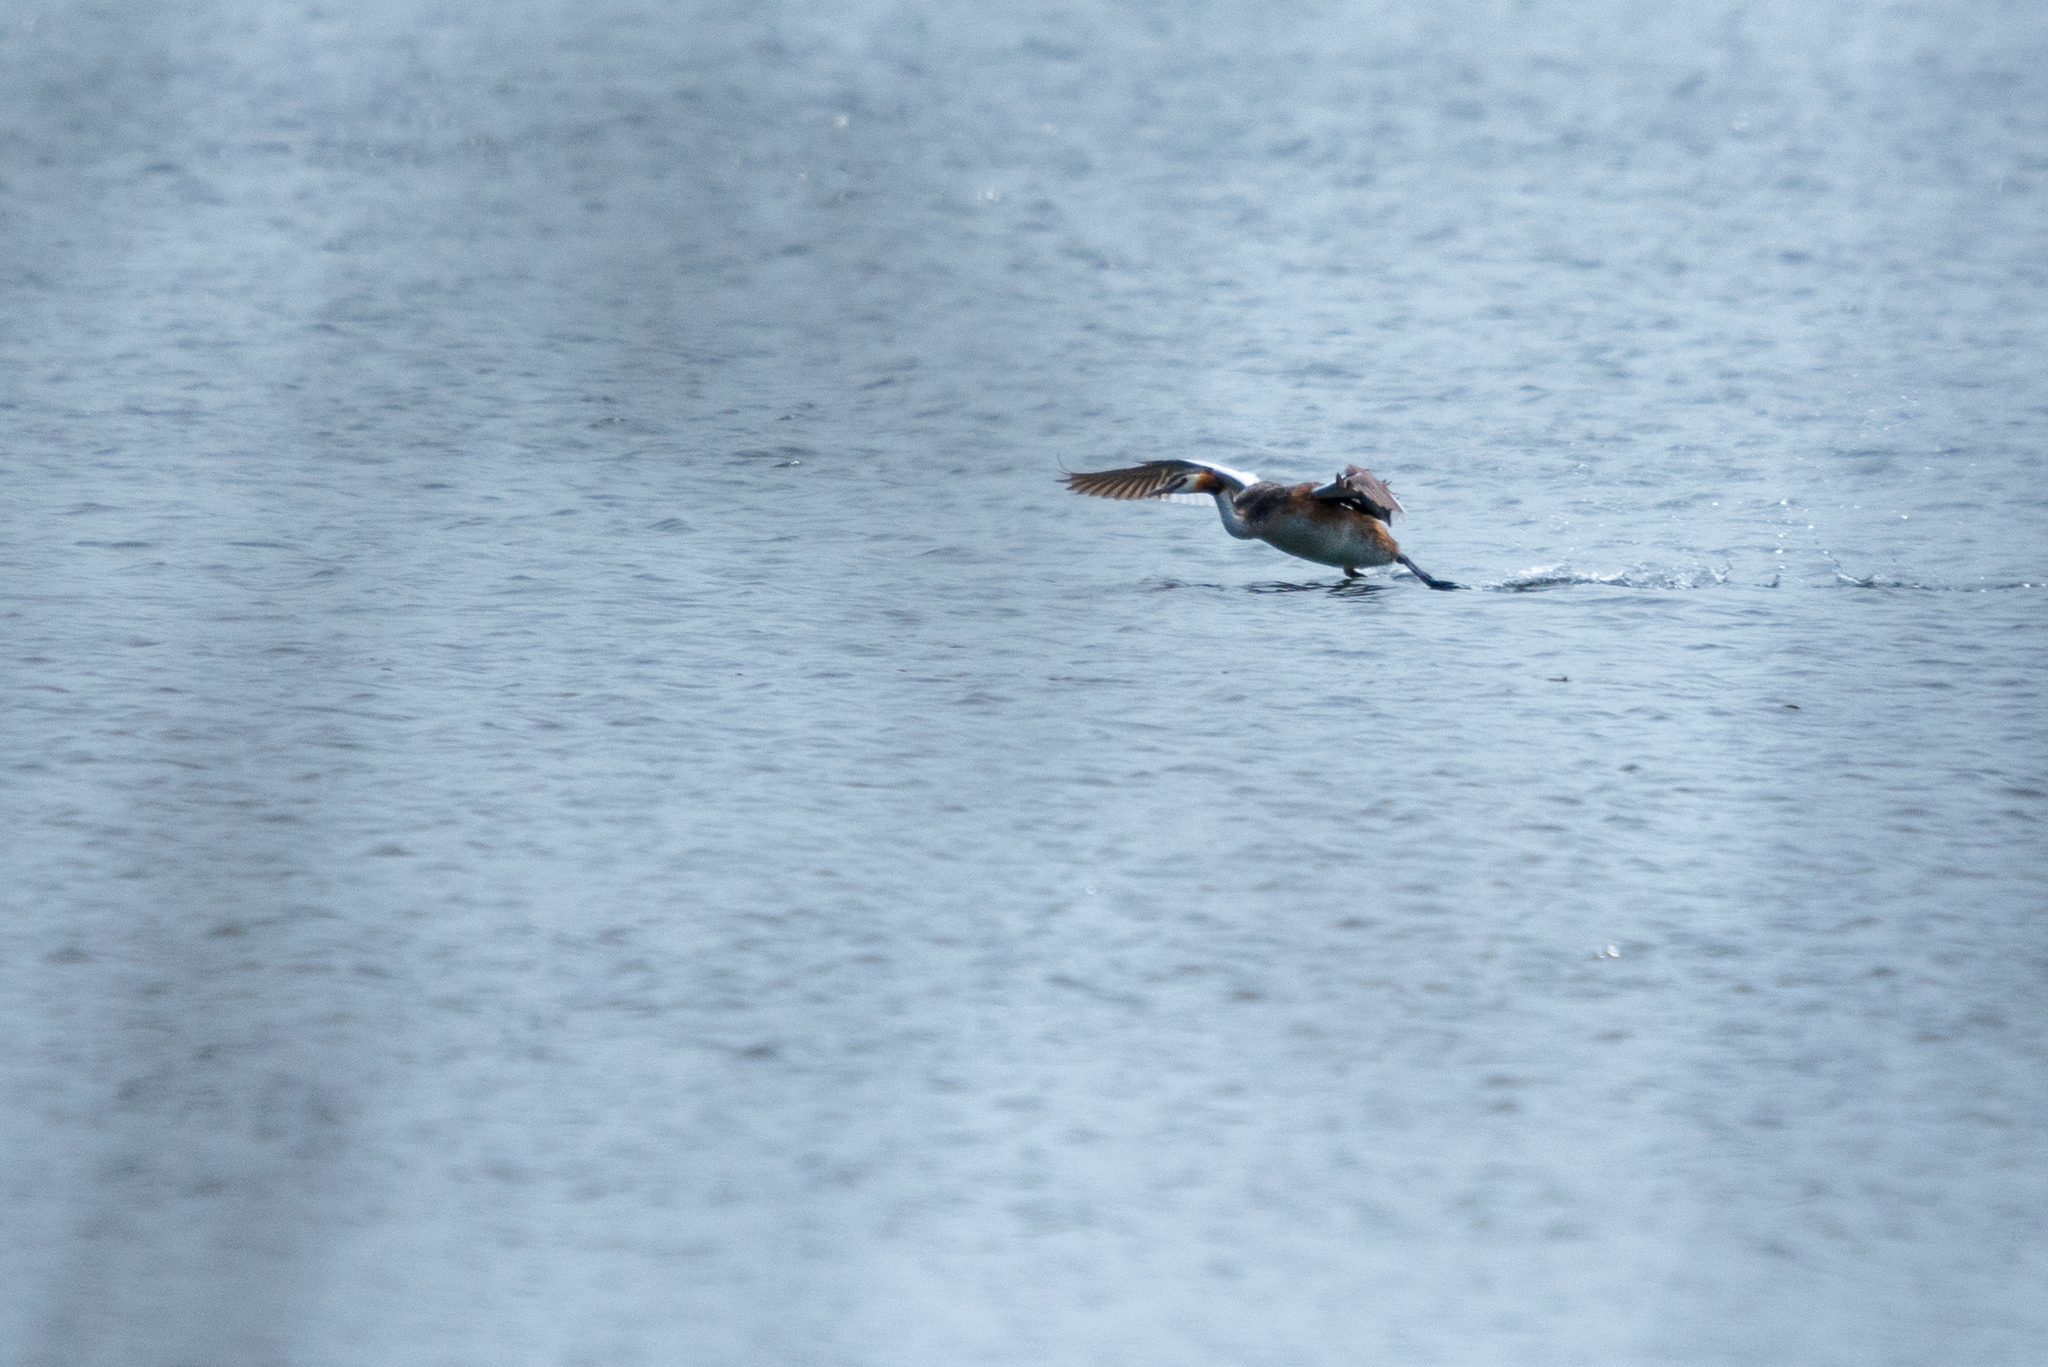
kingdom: Animalia
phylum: Chordata
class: Aves
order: Podicipediformes
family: Podicipedidae
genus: Podiceps
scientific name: Podiceps cristatus
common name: Great crested grebe
